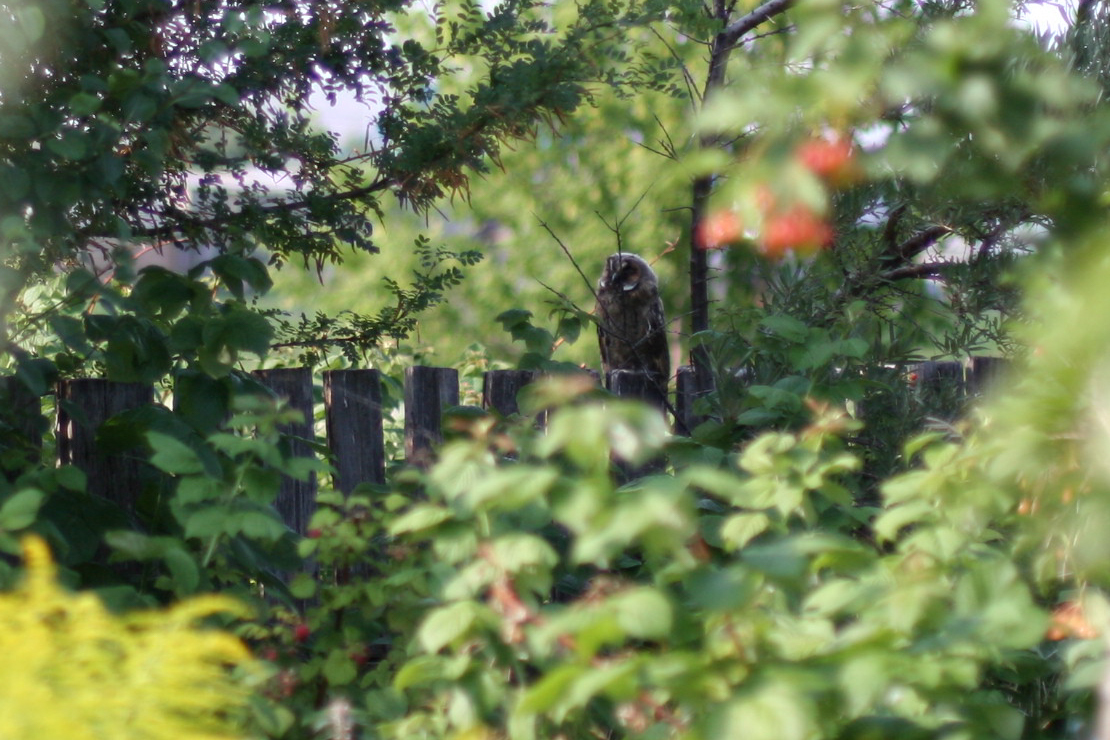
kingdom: Animalia
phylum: Chordata
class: Aves
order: Strigiformes
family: Strigidae
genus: Asio
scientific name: Asio otus
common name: Long-eared owl
